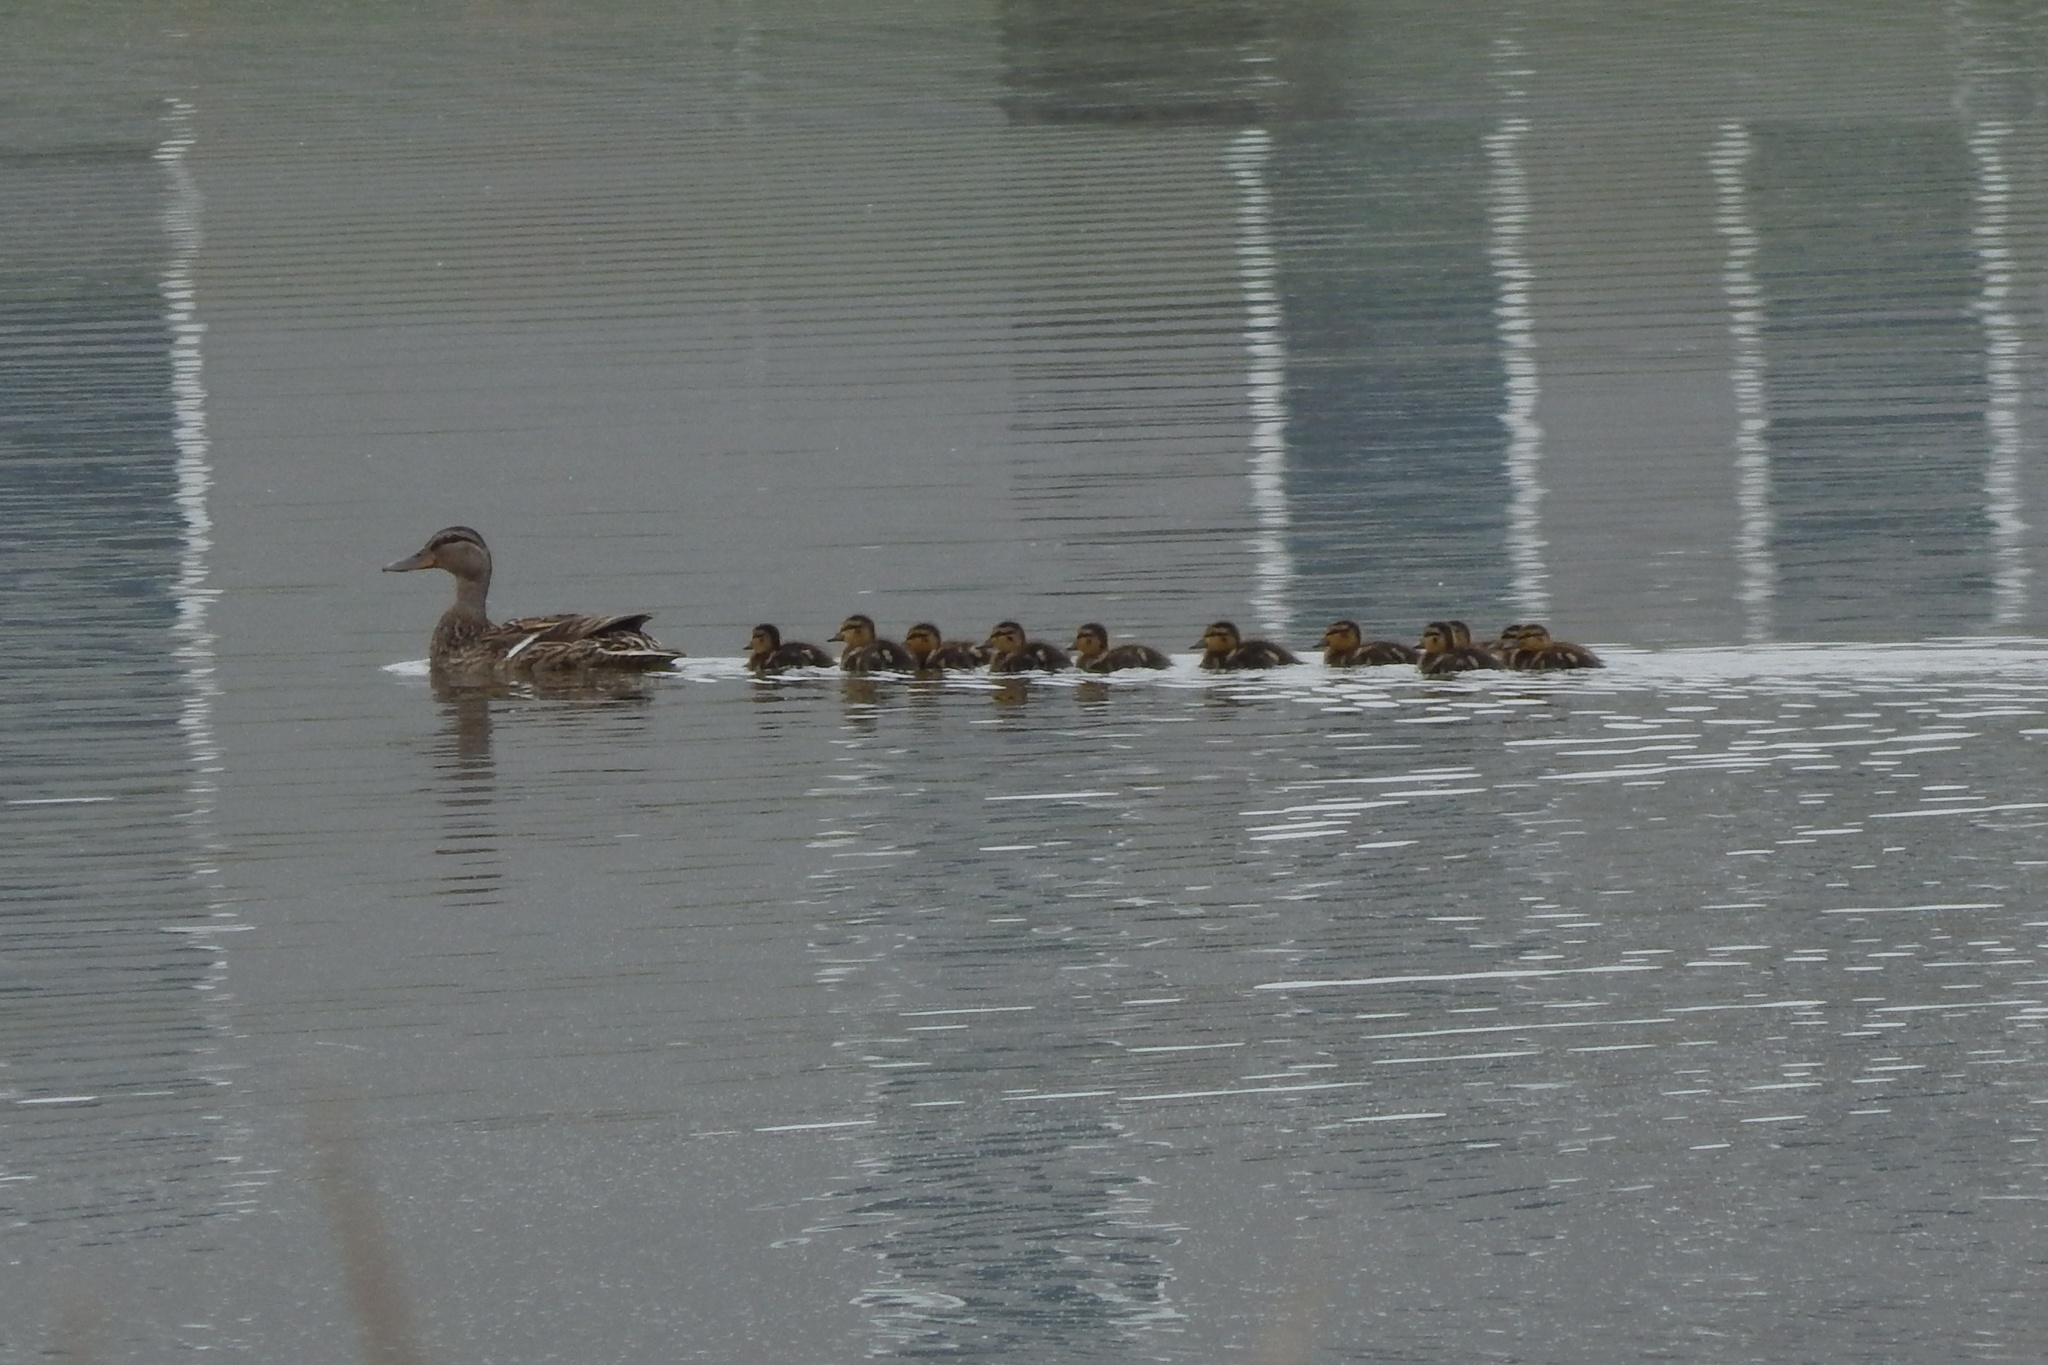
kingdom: Animalia
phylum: Chordata
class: Aves
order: Anseriformes
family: Anatidae
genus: Anas
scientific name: Anas platyrhynchos
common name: Mallard
